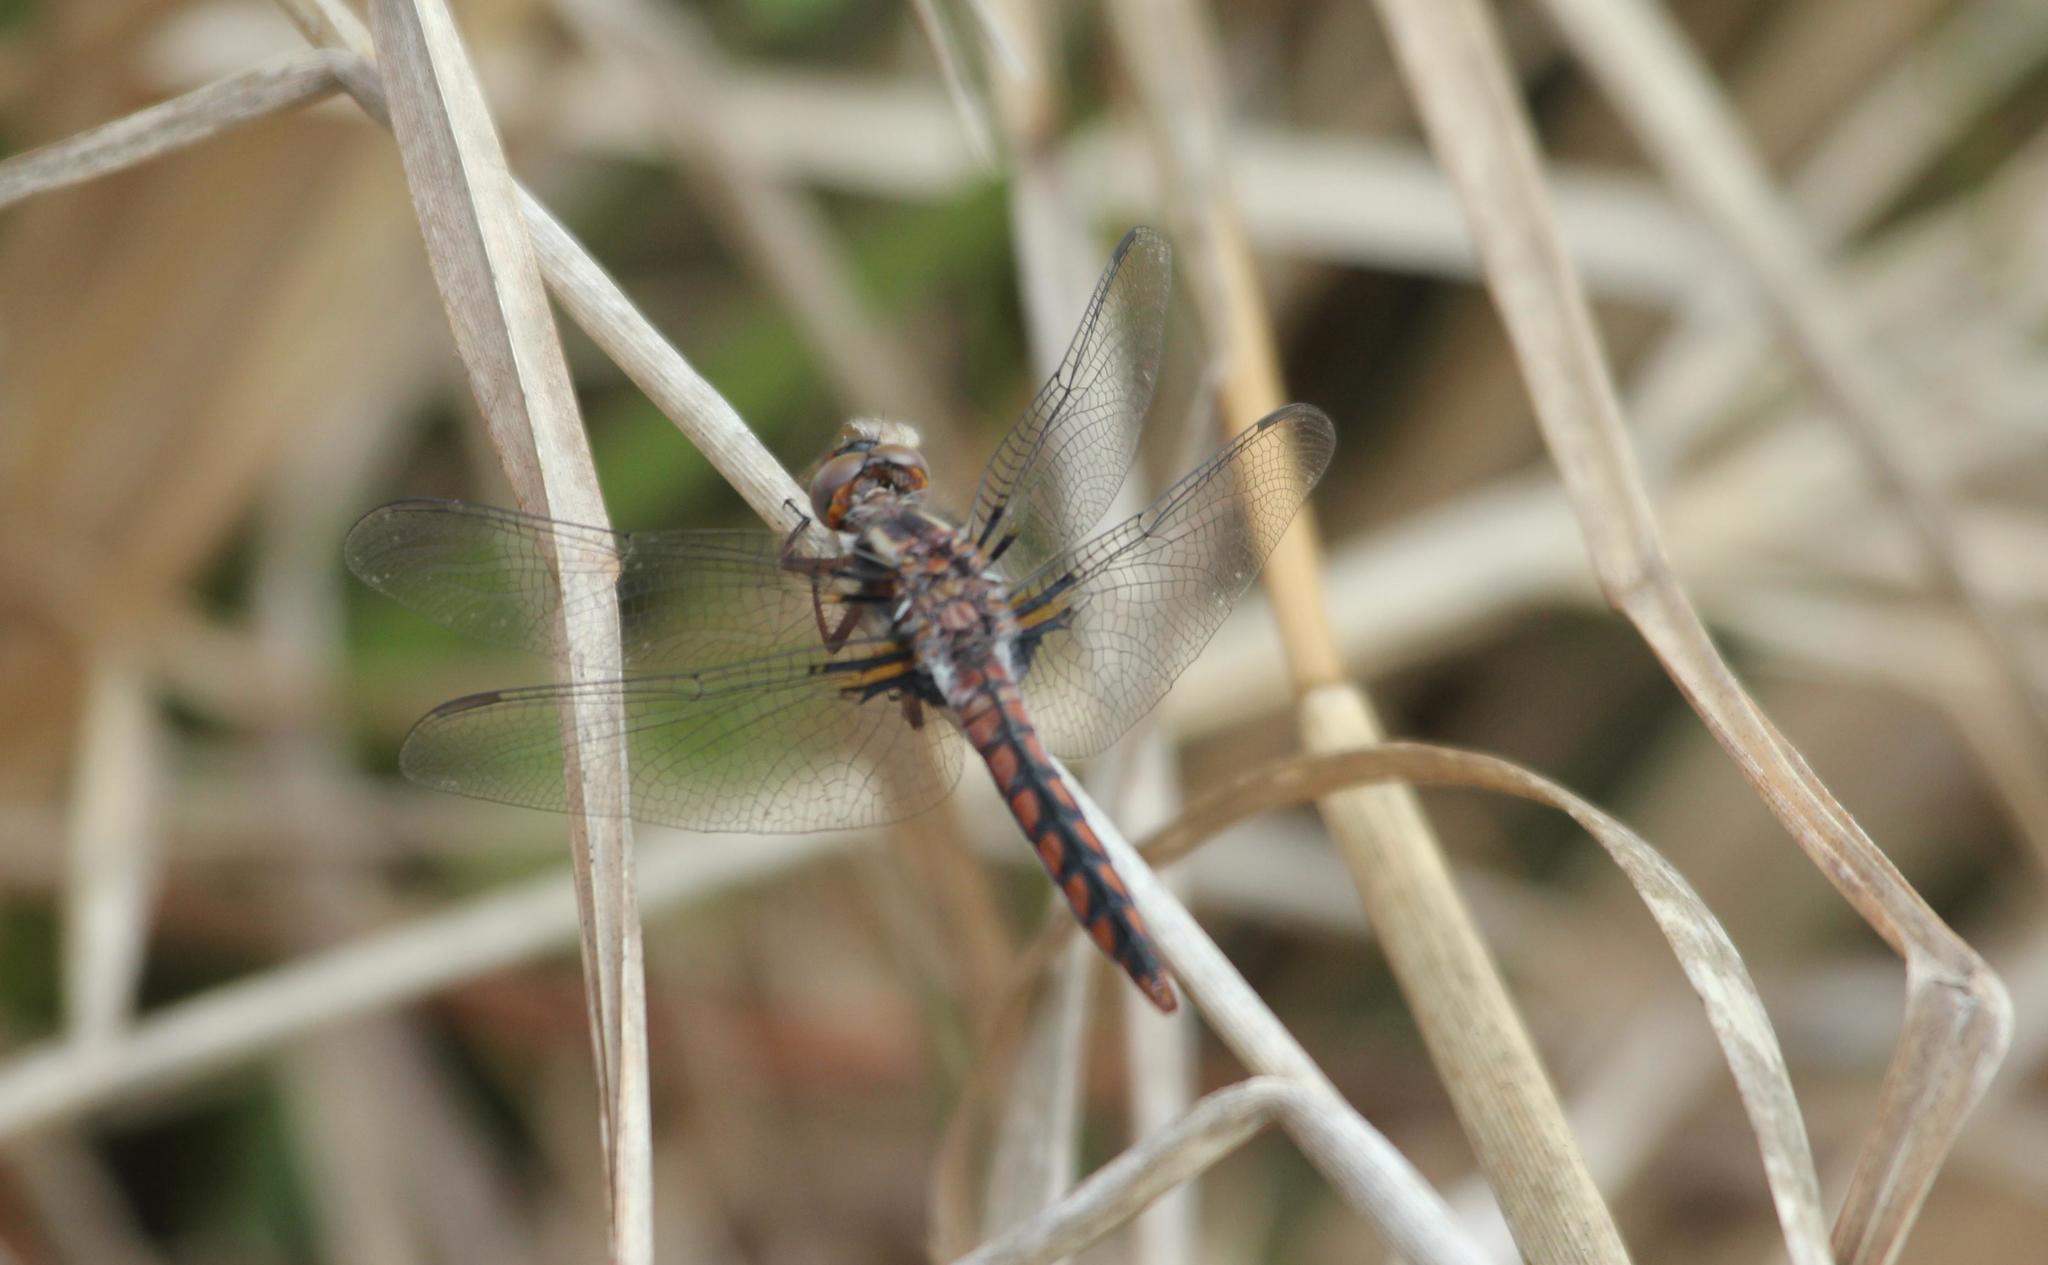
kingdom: Animalia
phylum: Arthropoda
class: Insecta
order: Odonata
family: Libellulidae
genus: Ladona
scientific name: Ladona deplanata
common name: Blue corporal
